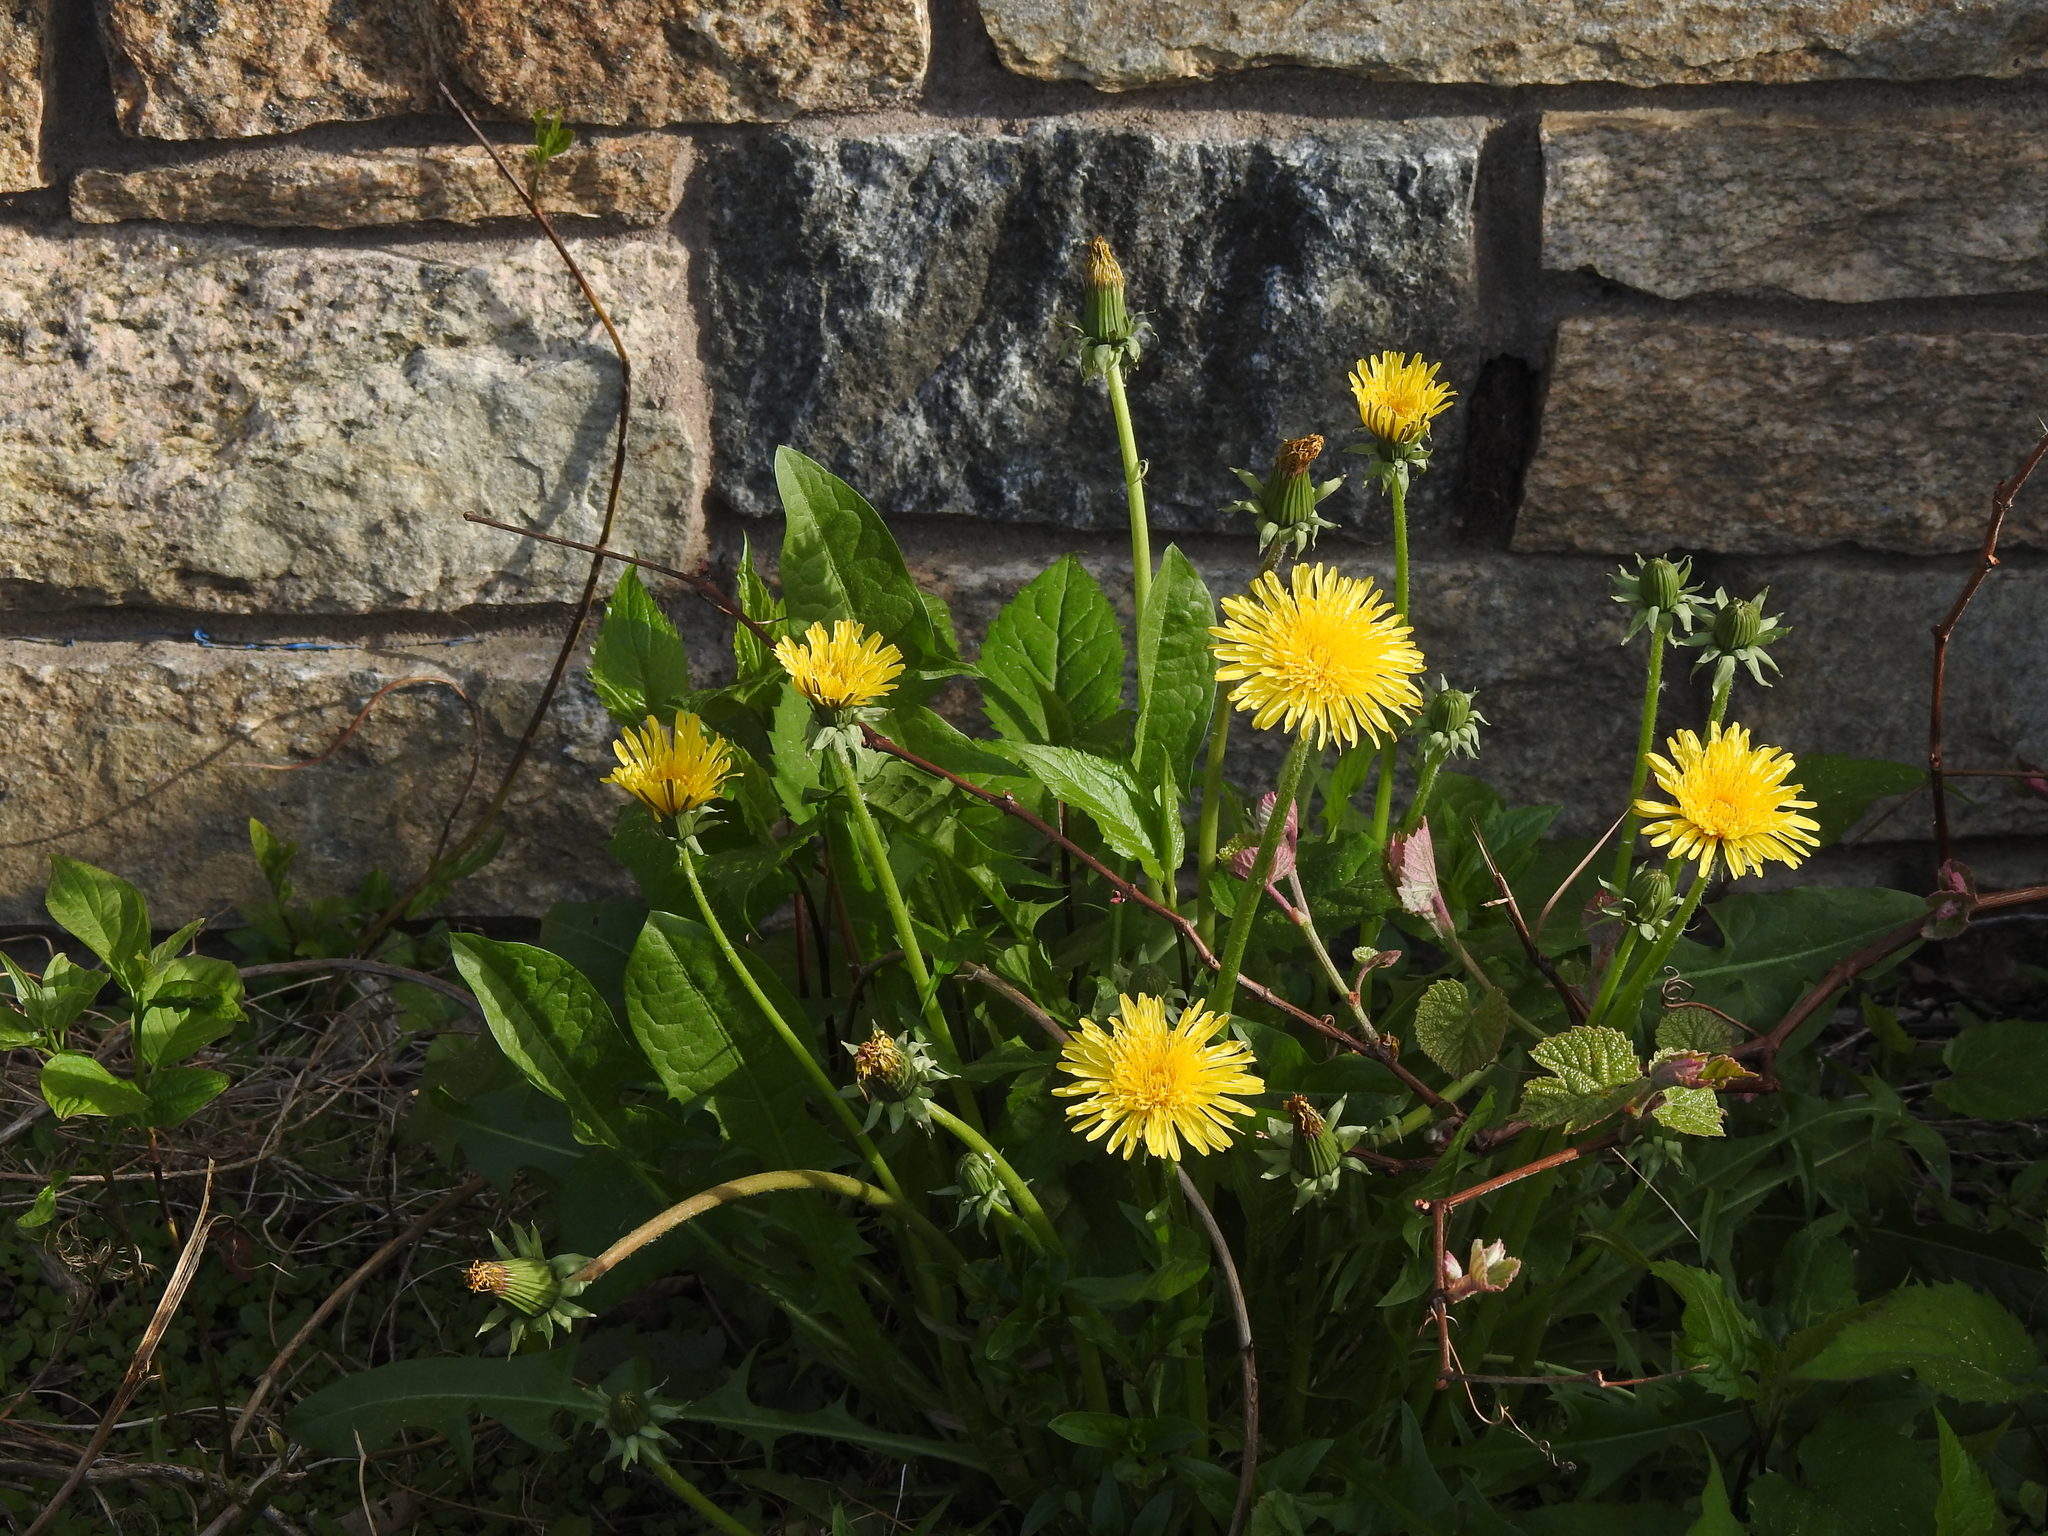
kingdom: Plantae
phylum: Tracheophyta
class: Magnoliopsida
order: Asterales
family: Asteraceae
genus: Taraxacum
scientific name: Taraxacum officinale
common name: Common dandelion
